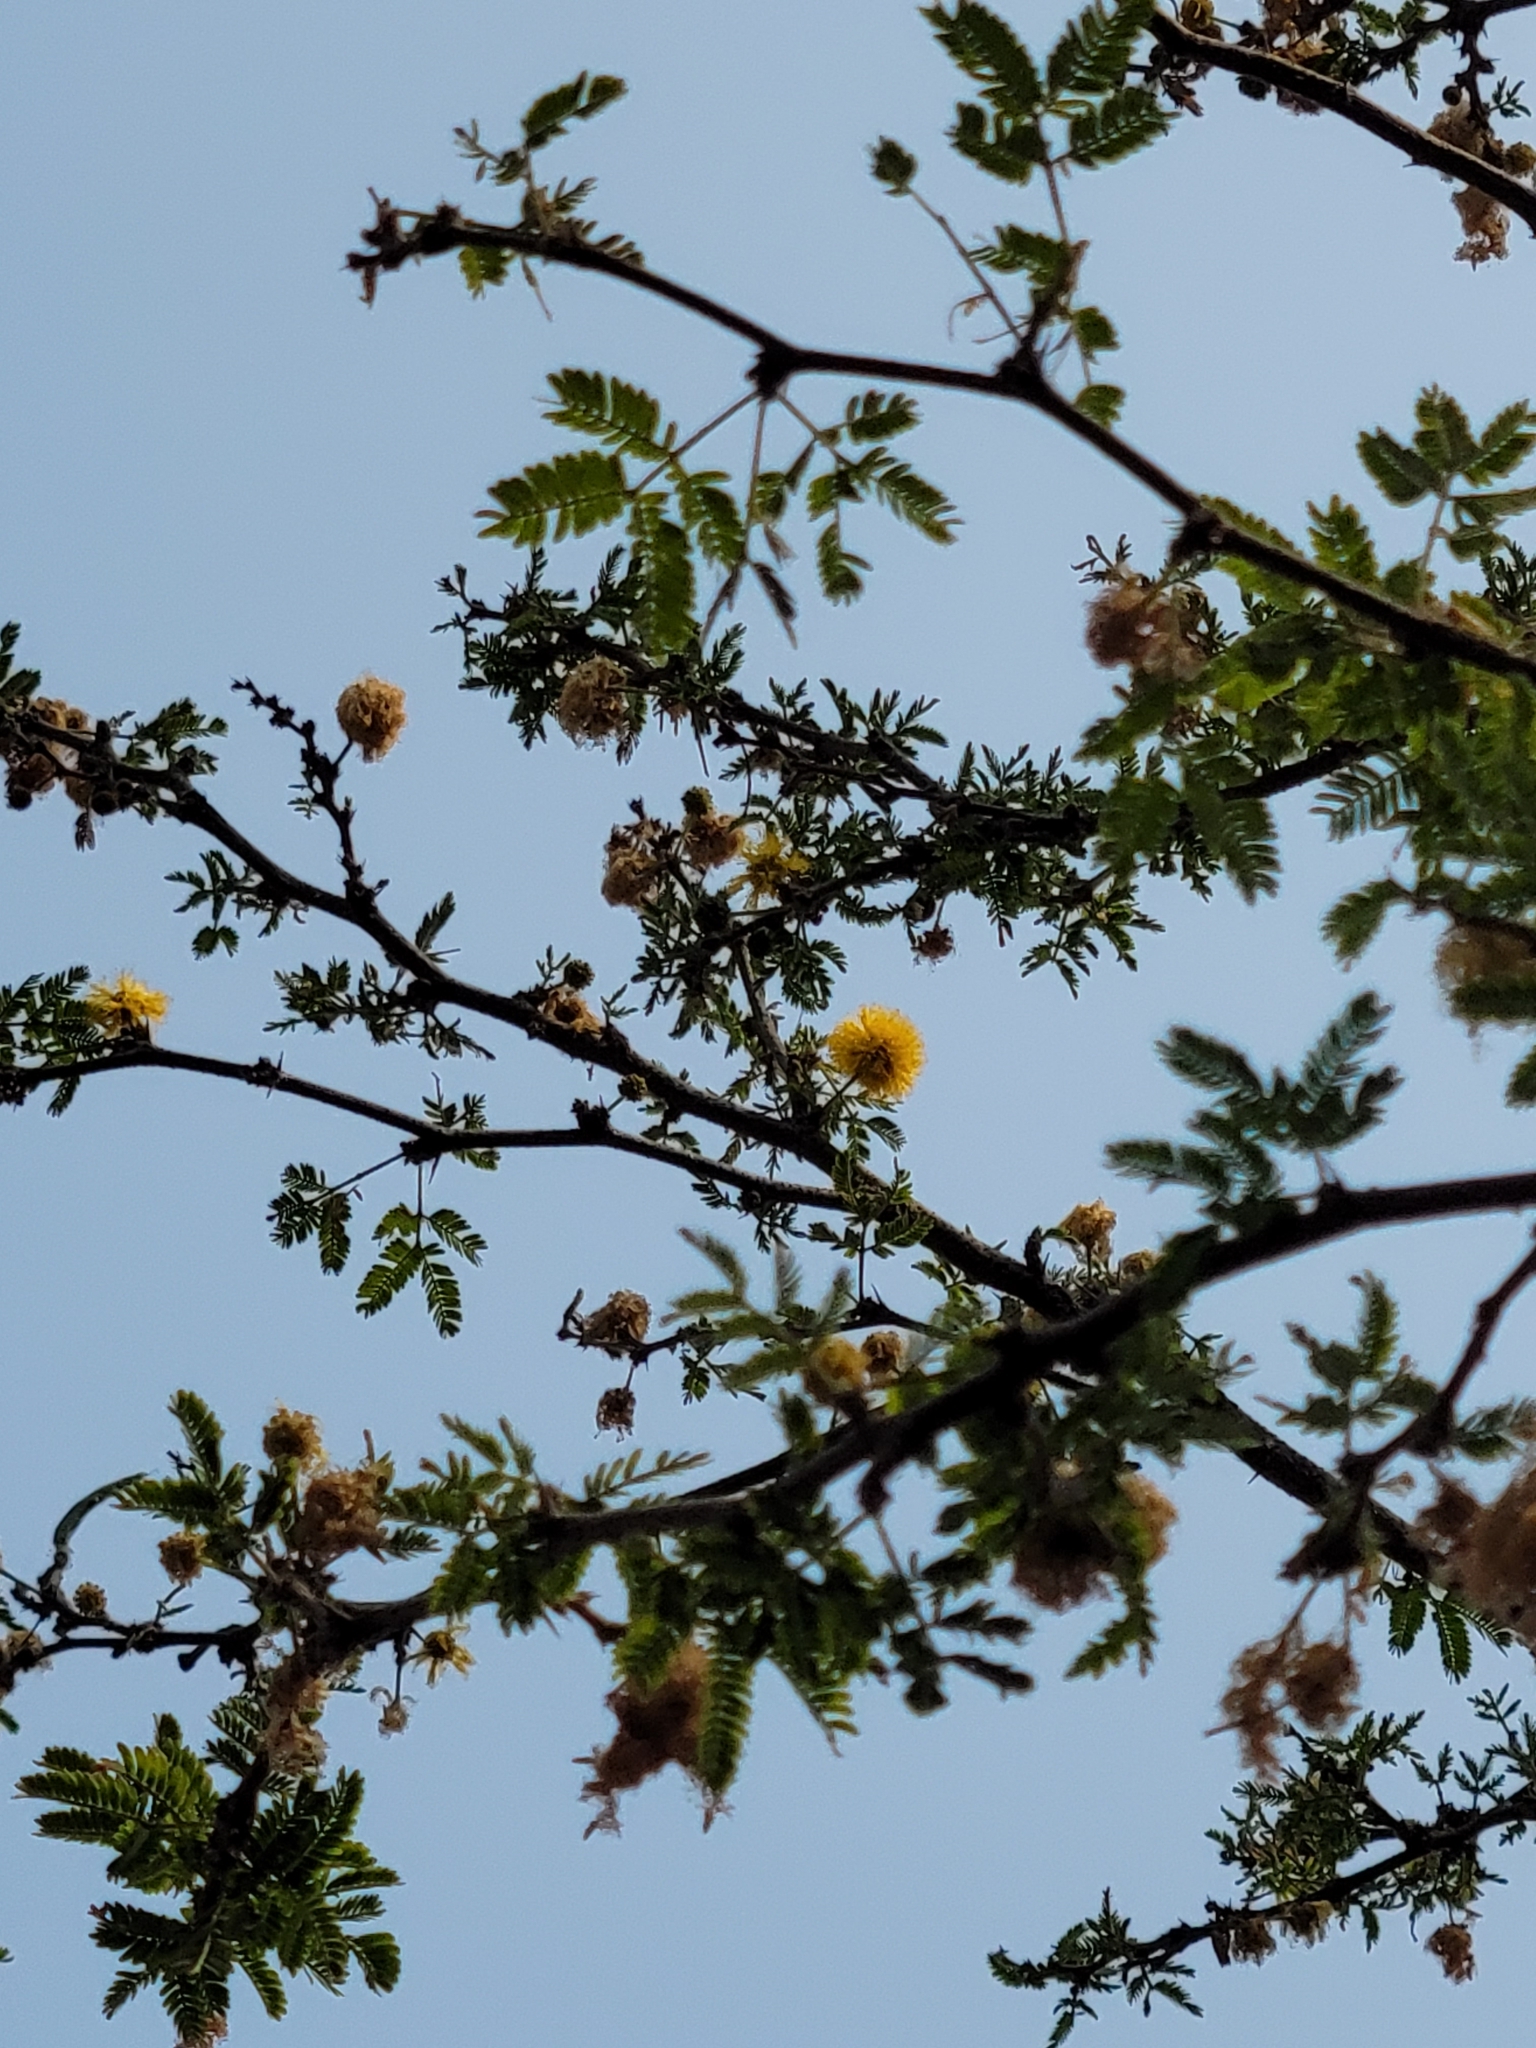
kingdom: Plantae
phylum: Tracheophyta
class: Magnoliopsida
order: Fabales
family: Fabaceae
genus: Vachellia
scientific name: Vachellia farnesiana
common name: Sweet acacia
